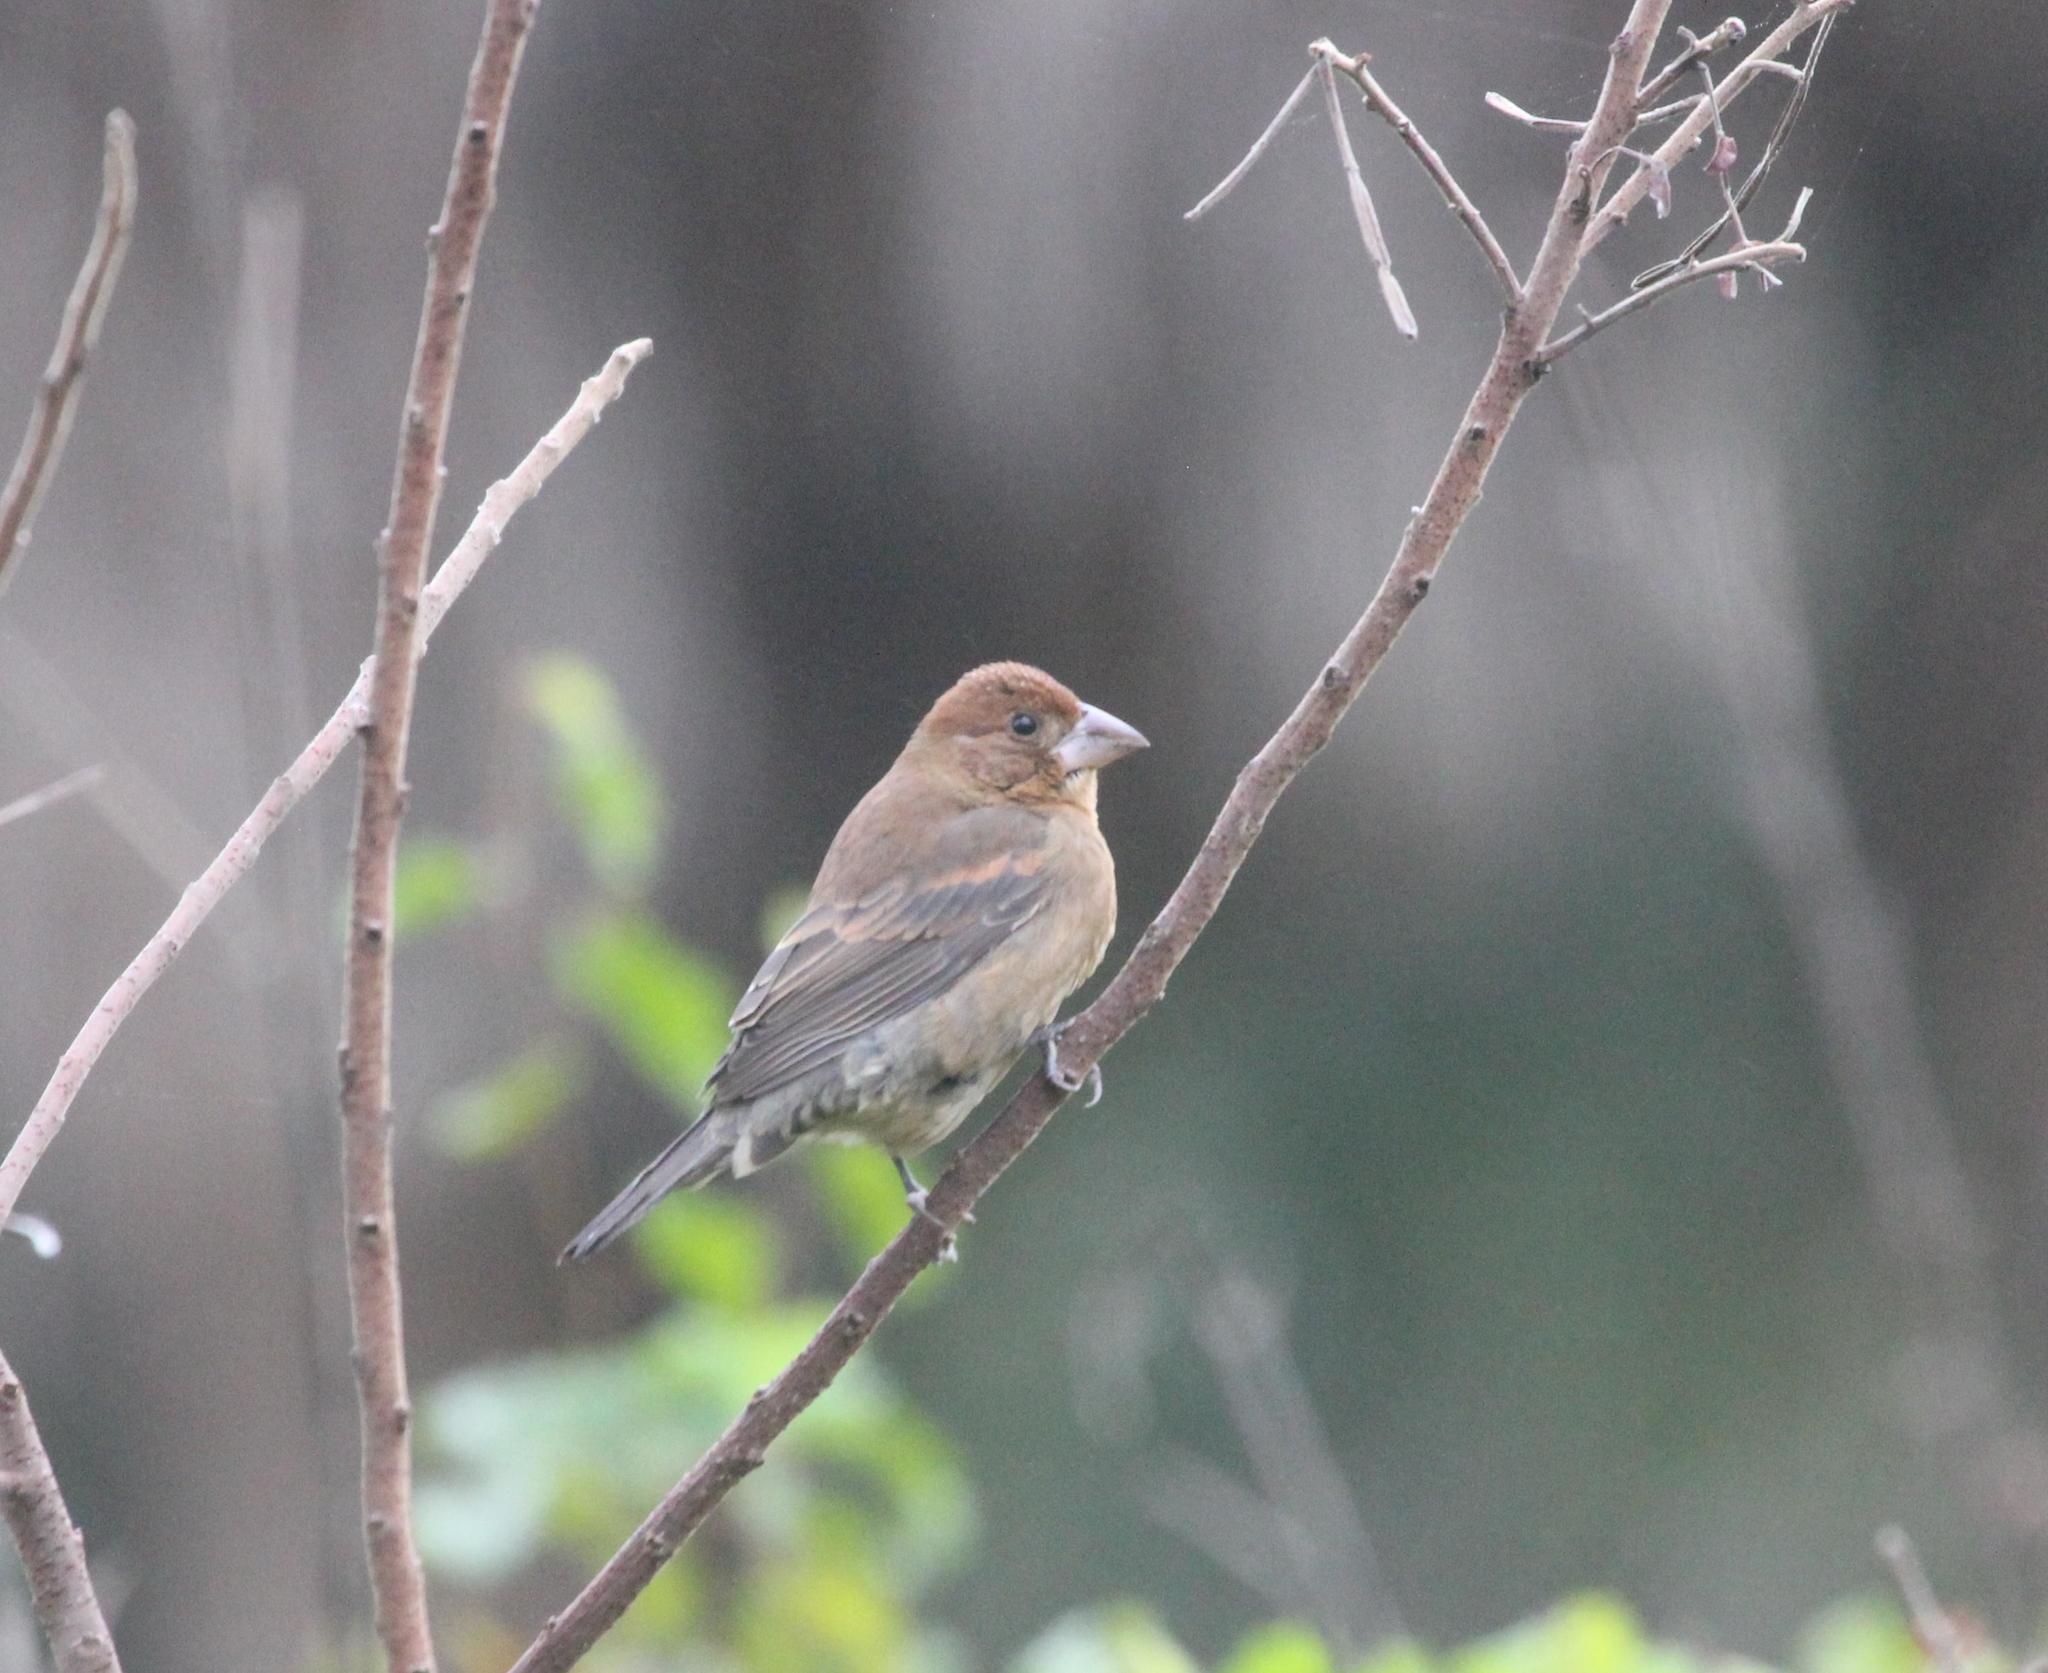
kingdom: Animalia
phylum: Chordata
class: Aves
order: Passeriformes
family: Cardinalidae
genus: Passerina
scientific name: Passerina caerulea
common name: Blue grosbeak
